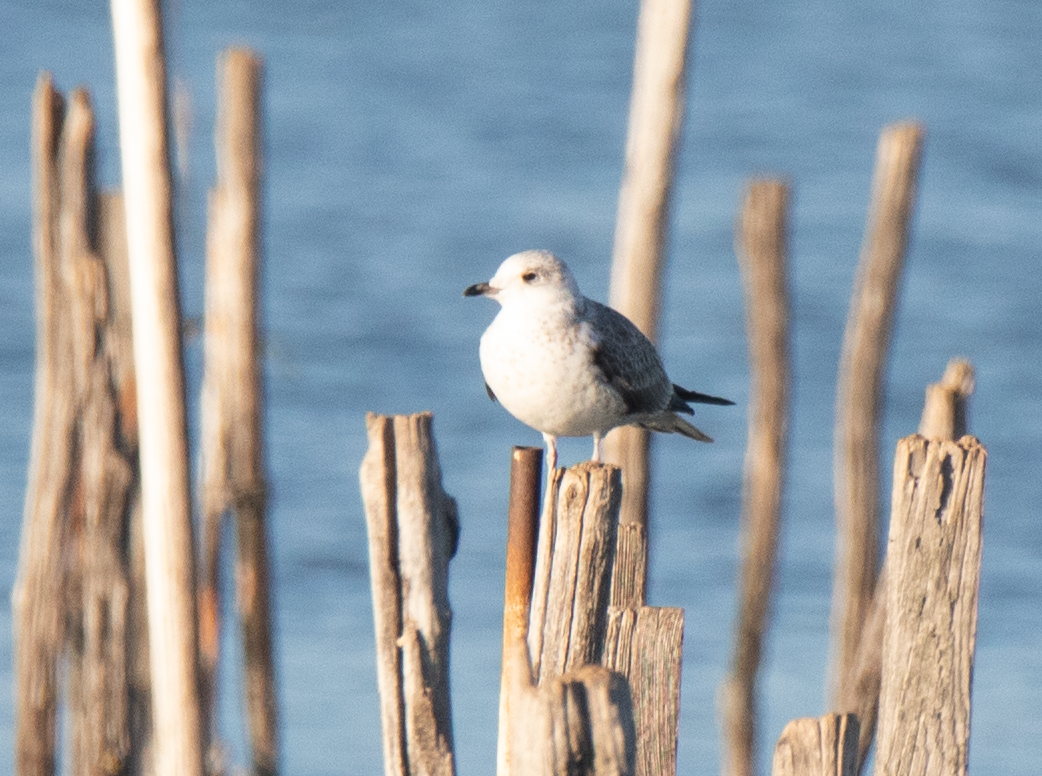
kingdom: Animalia
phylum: Chordata
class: Aves
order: Charadriiformes
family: Laridae
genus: Larus
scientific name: Larus canus
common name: Mew gull
